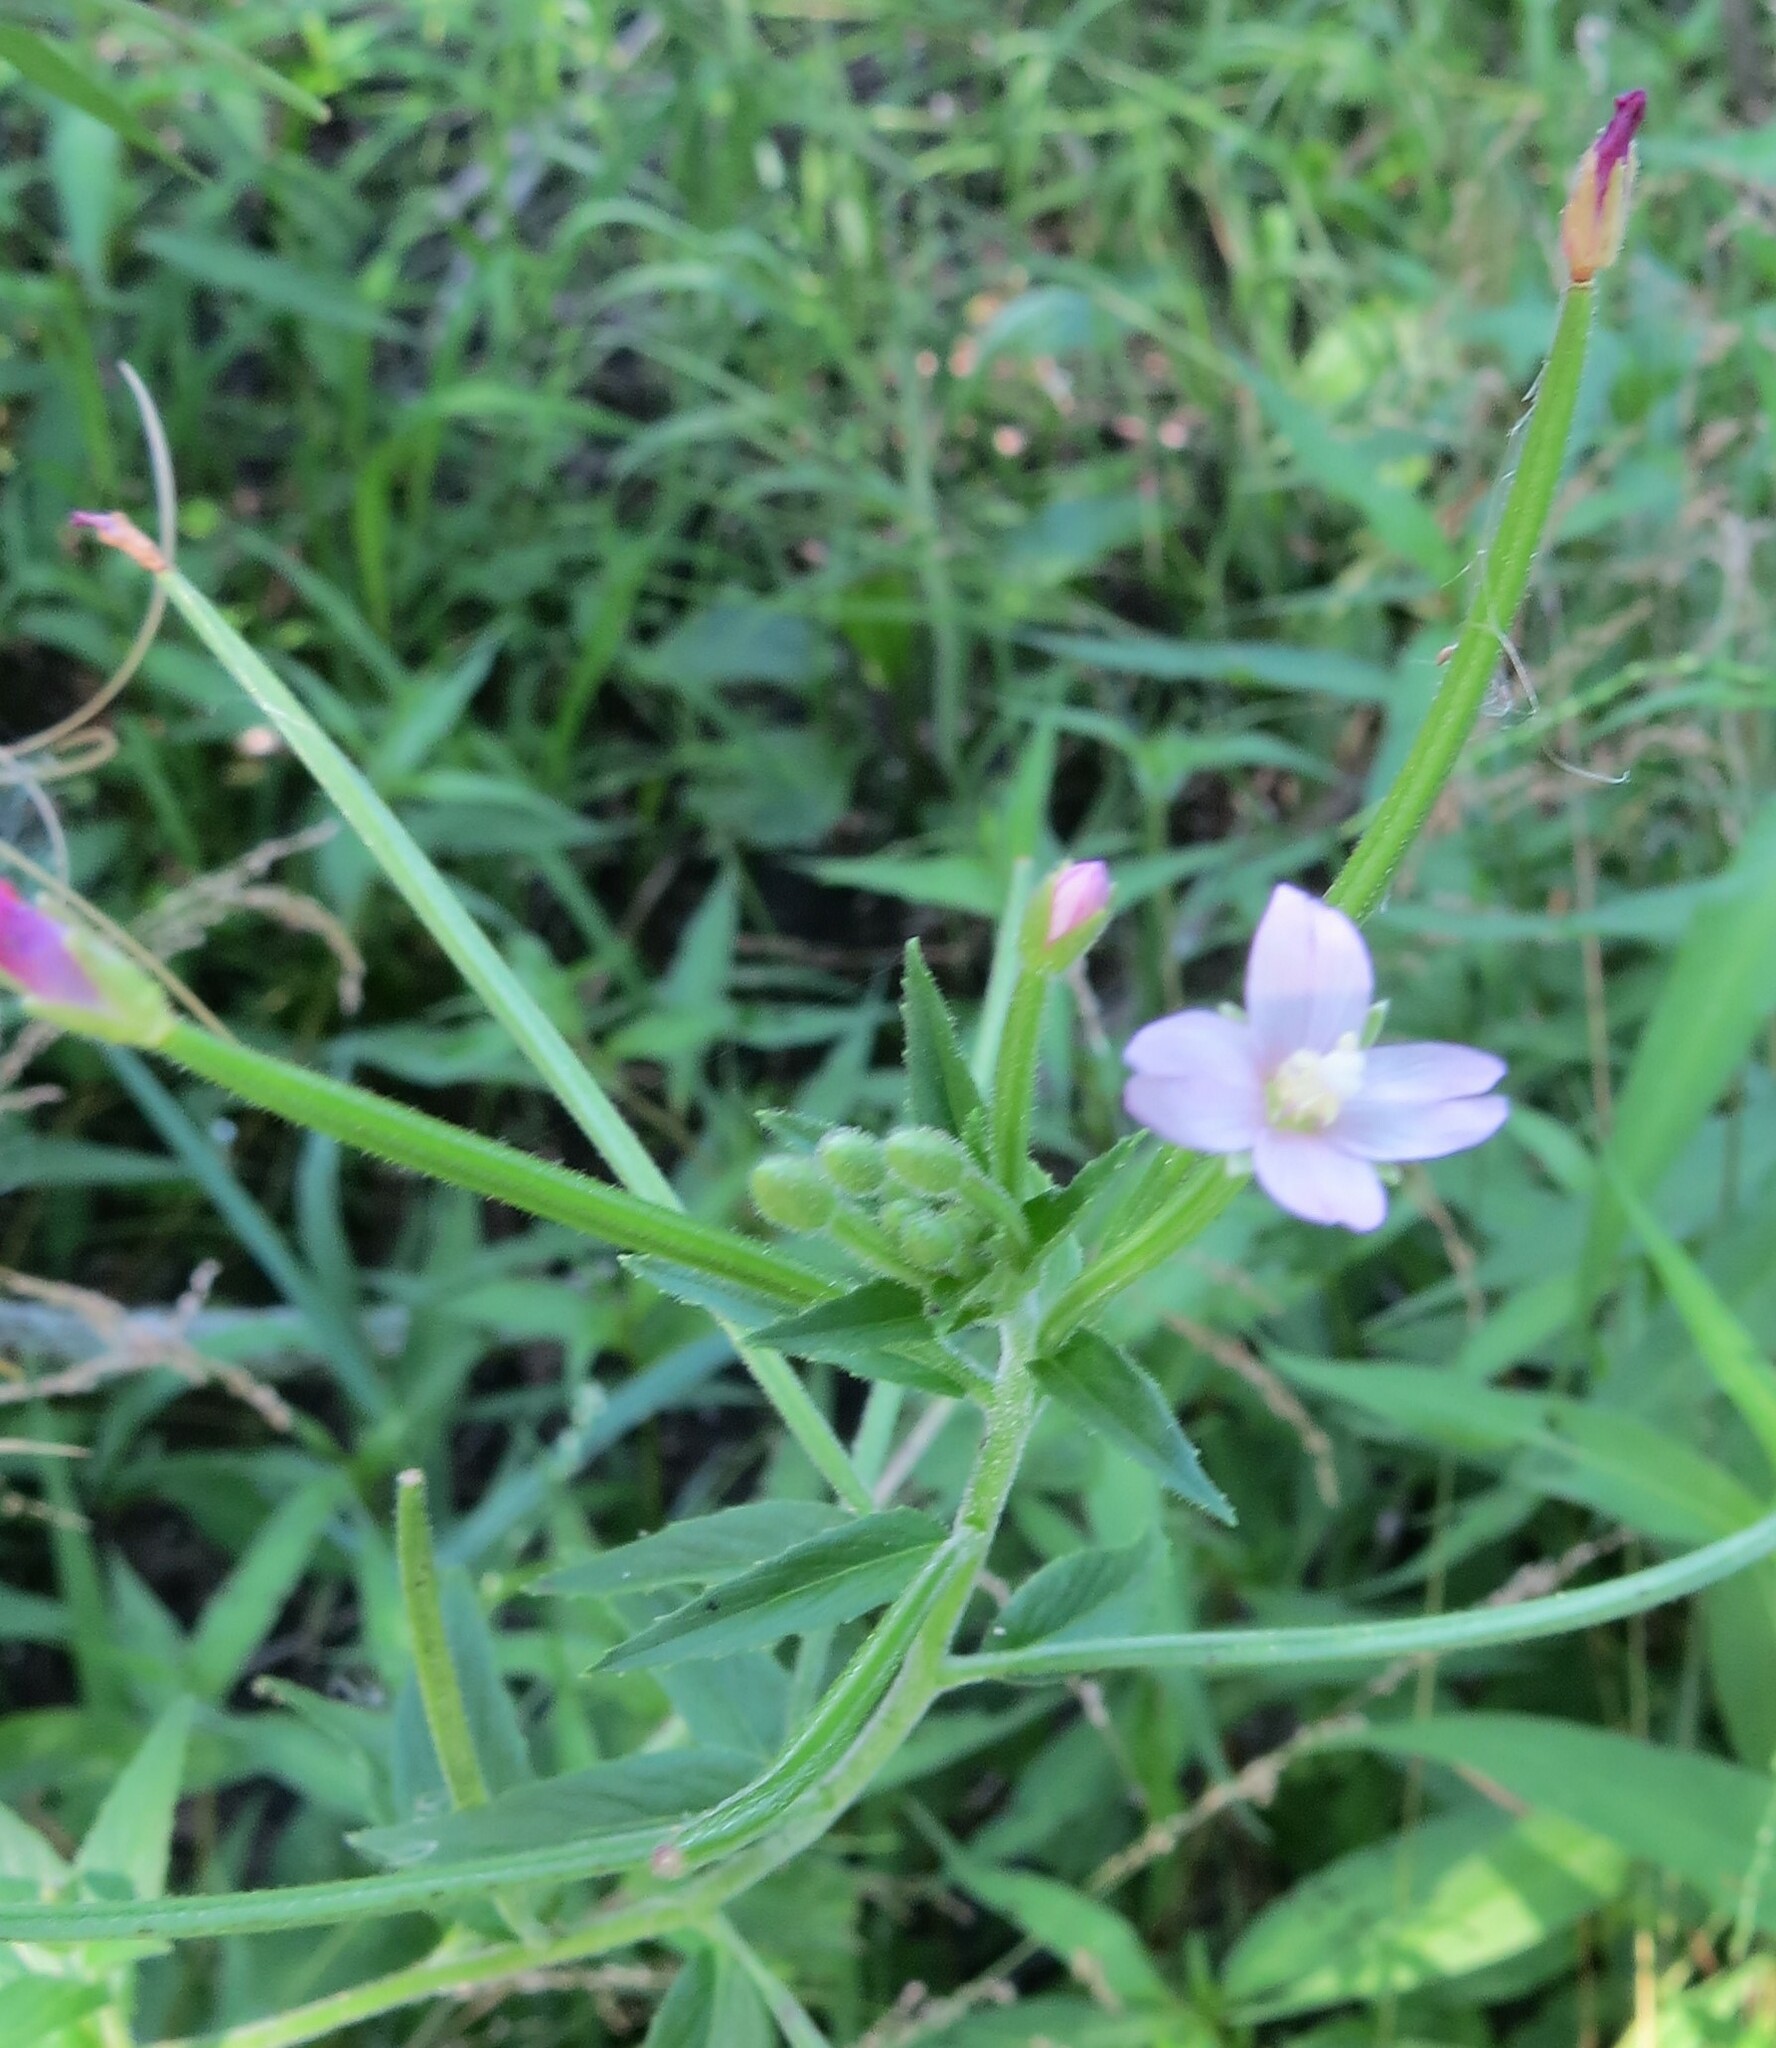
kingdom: Plantae
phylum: Tracheophyta
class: Magnoliopsida
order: Myrtales
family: Onagraceae
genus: Epilobium
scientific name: Epilobium parviflorum
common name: Hoary willowherb
